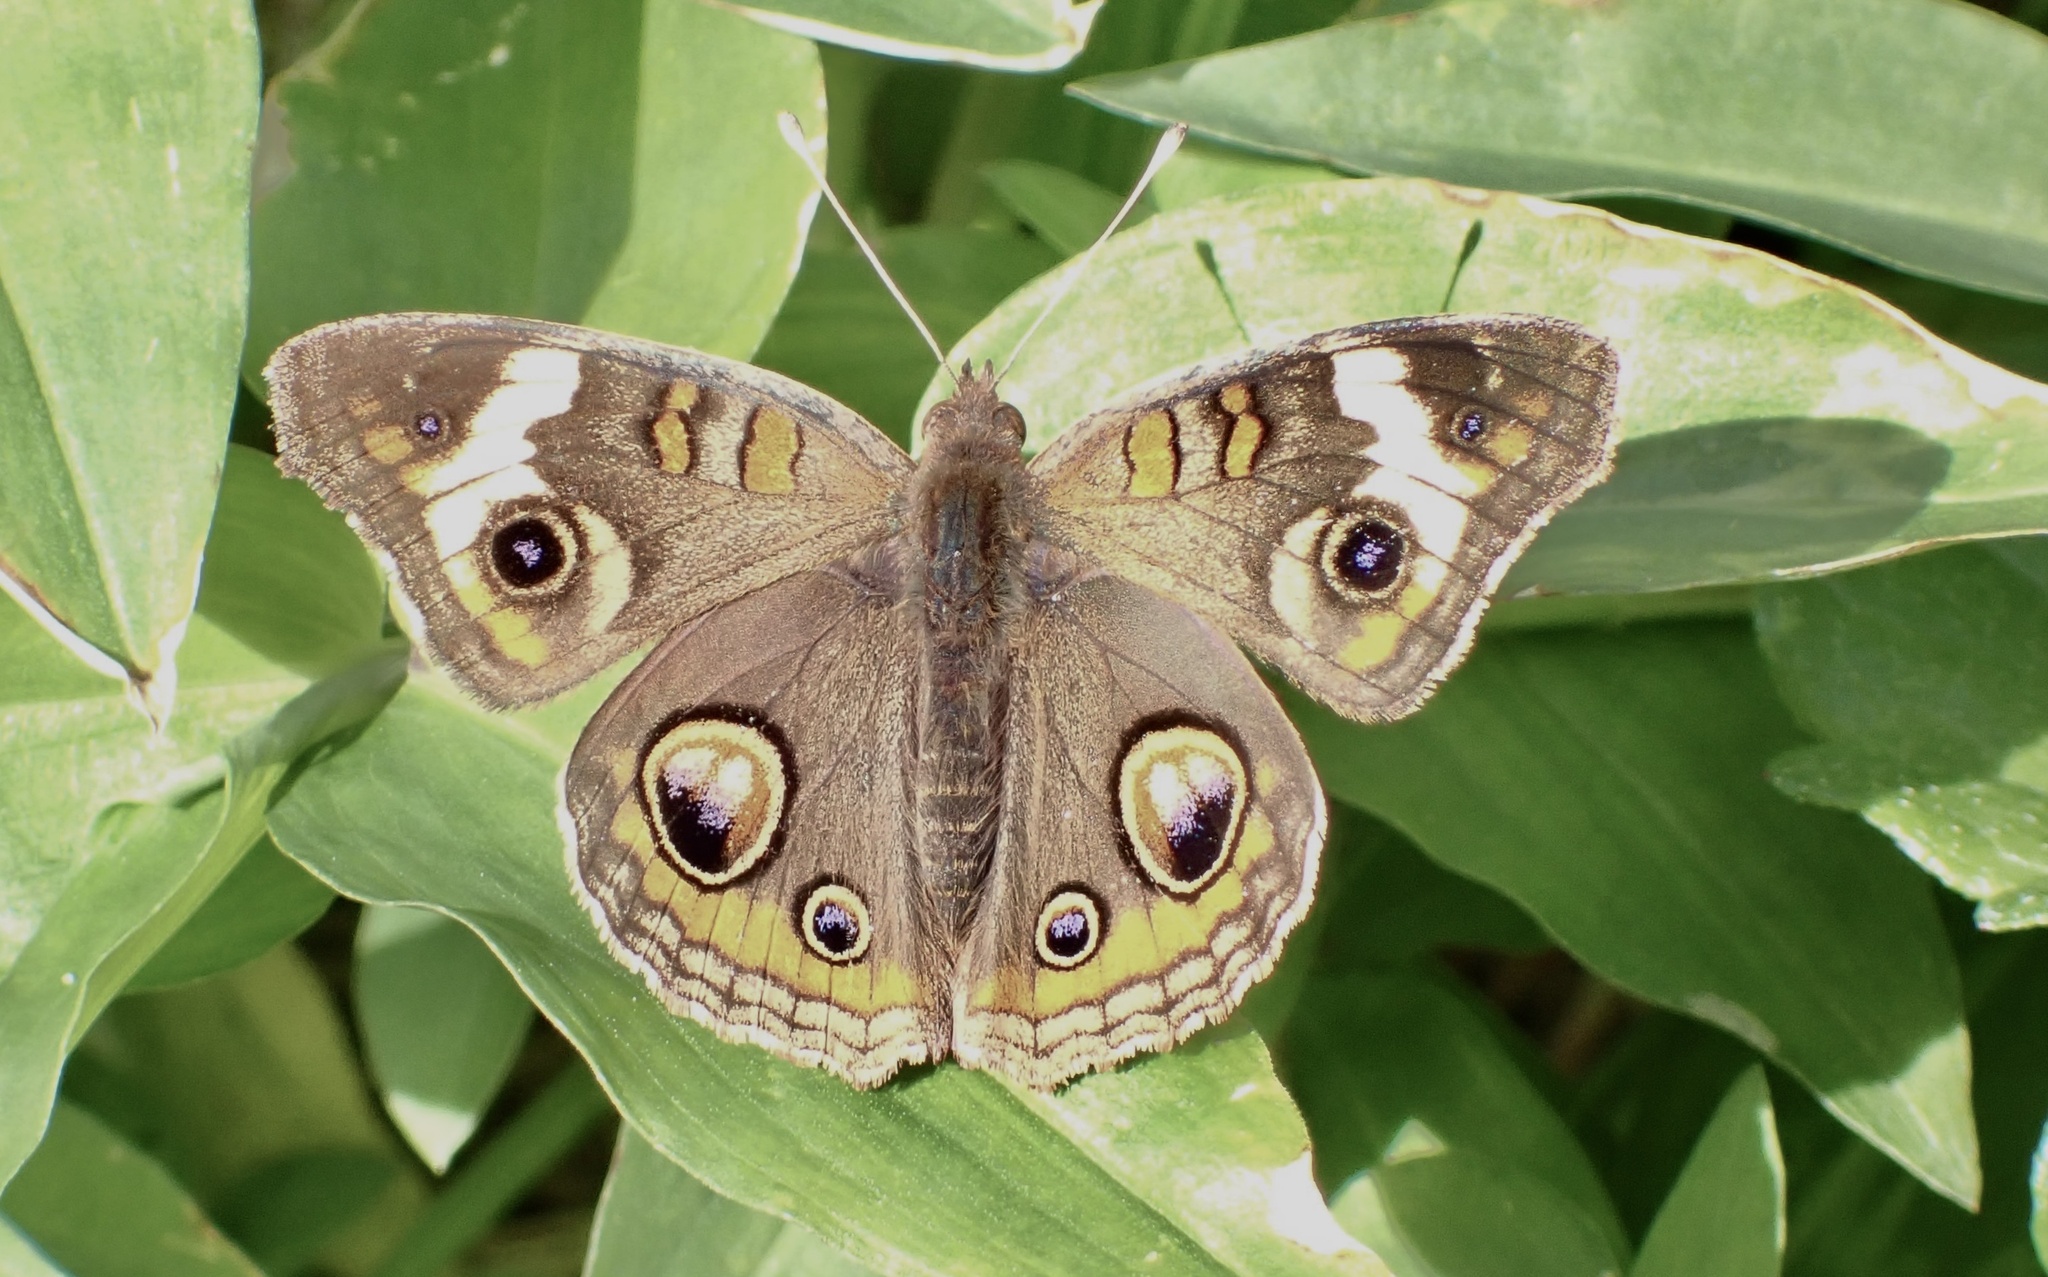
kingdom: Animalia
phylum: Arthropoda
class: Insecta
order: Lepidoptera
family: Nymphalidae
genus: Junonia
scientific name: Junonia coenia
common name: Common buckeye
